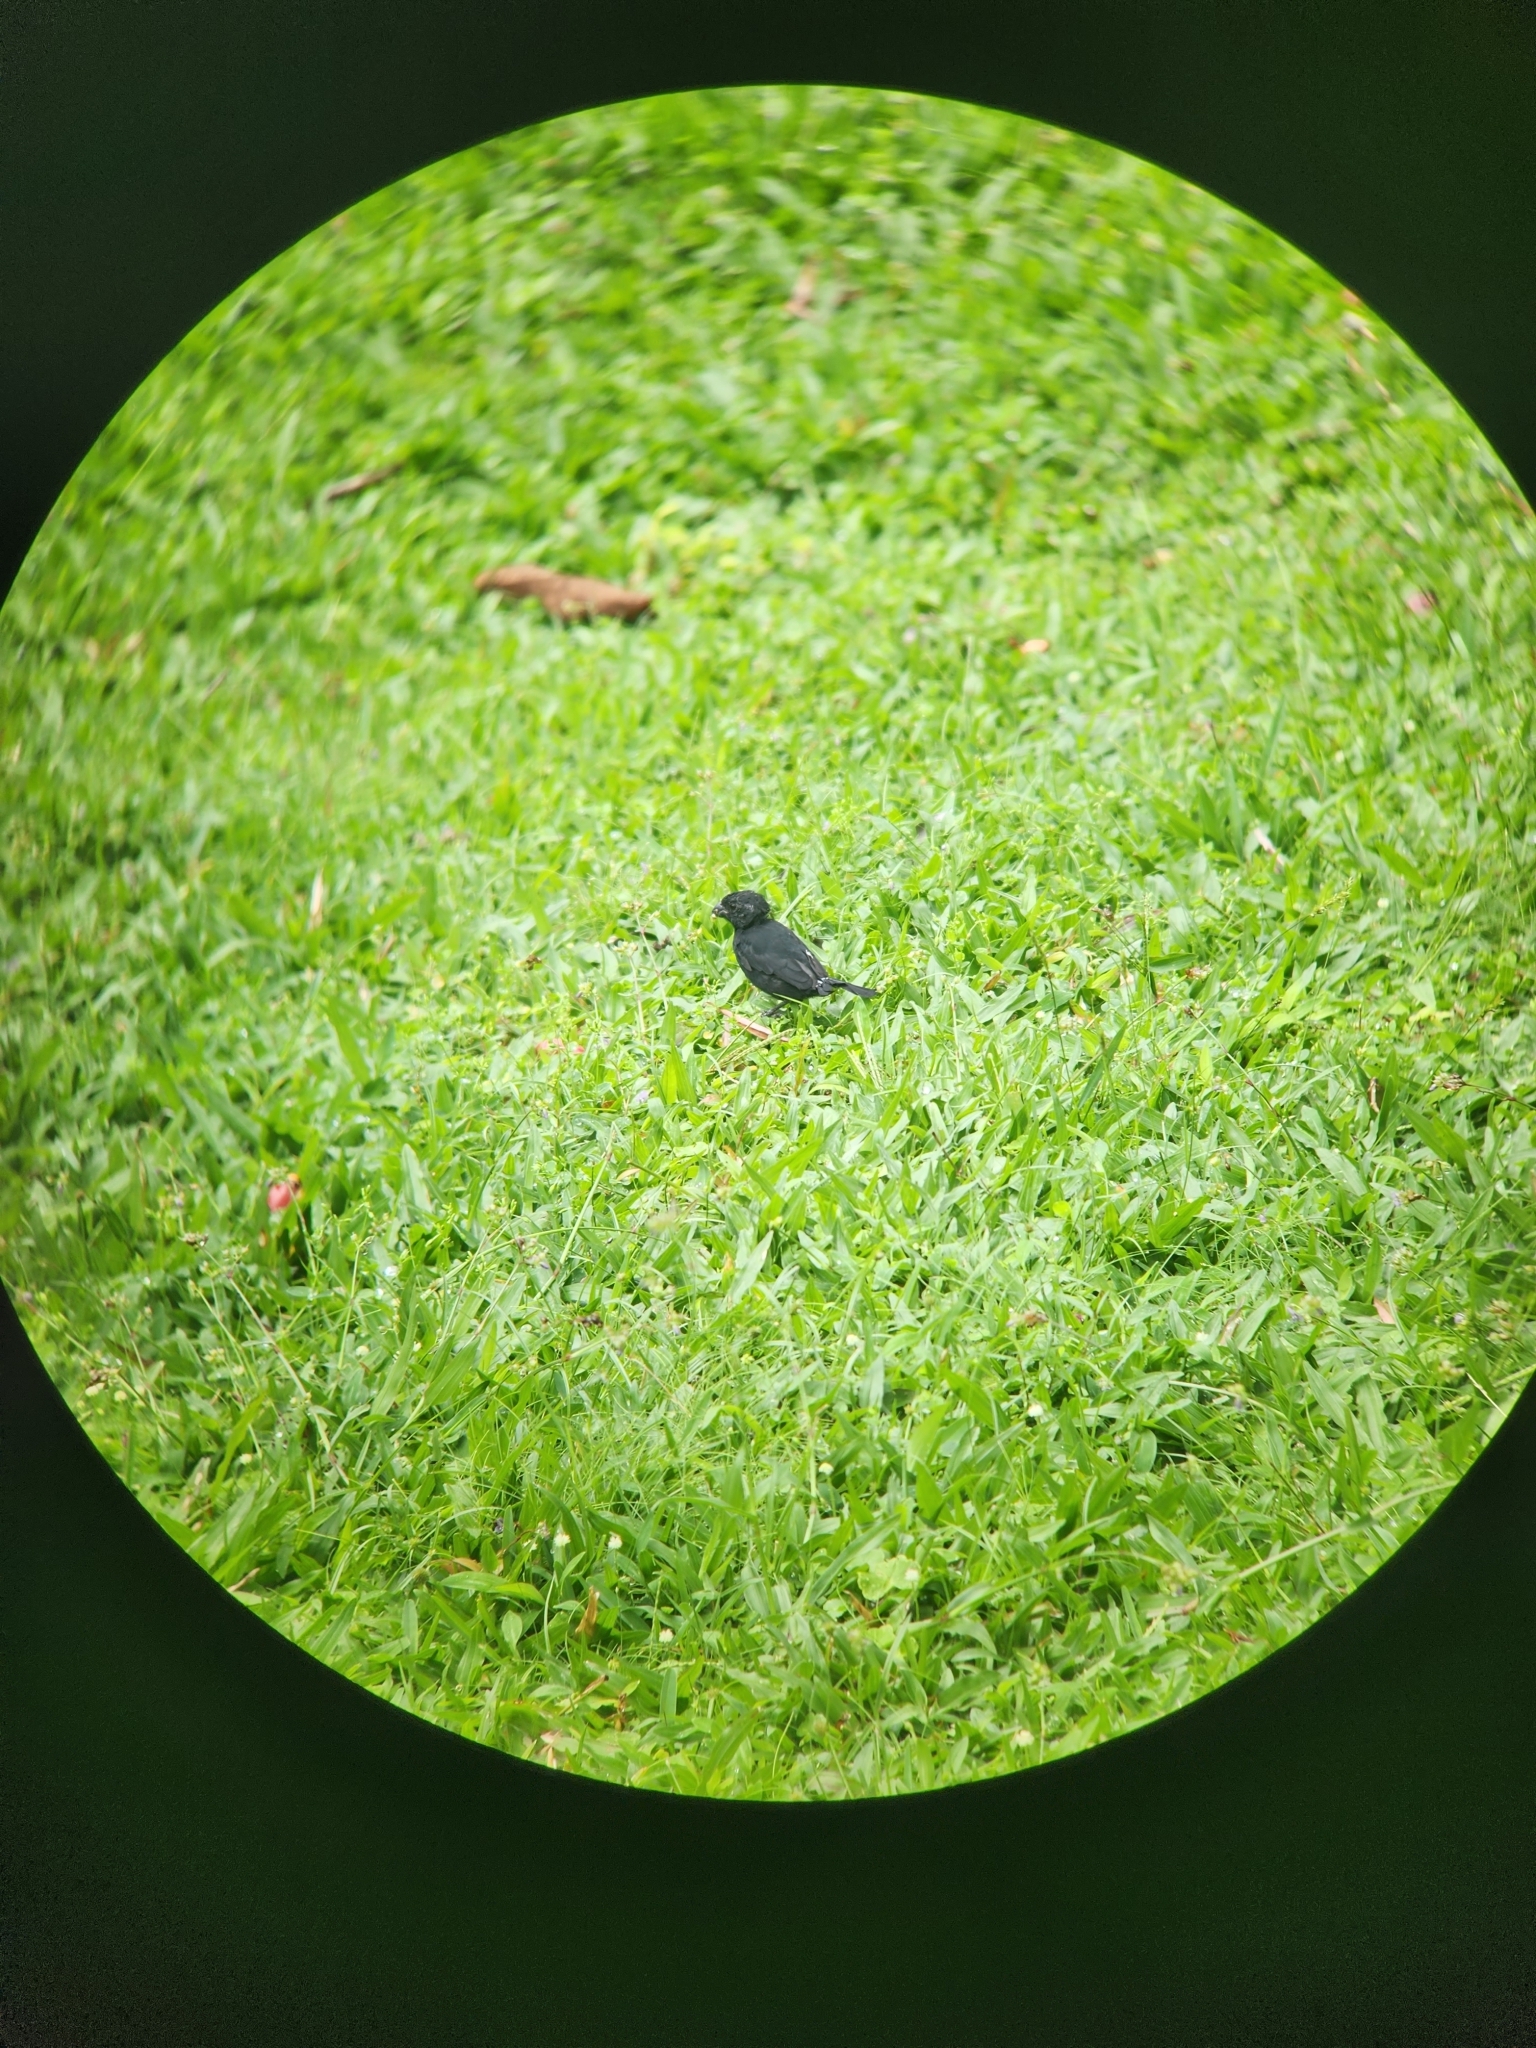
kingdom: Animalia
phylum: Chordata
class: Aves
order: Passeriformes
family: Thraupidae
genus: Sporophila
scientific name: Sporophila corvina
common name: Variable seedeater
